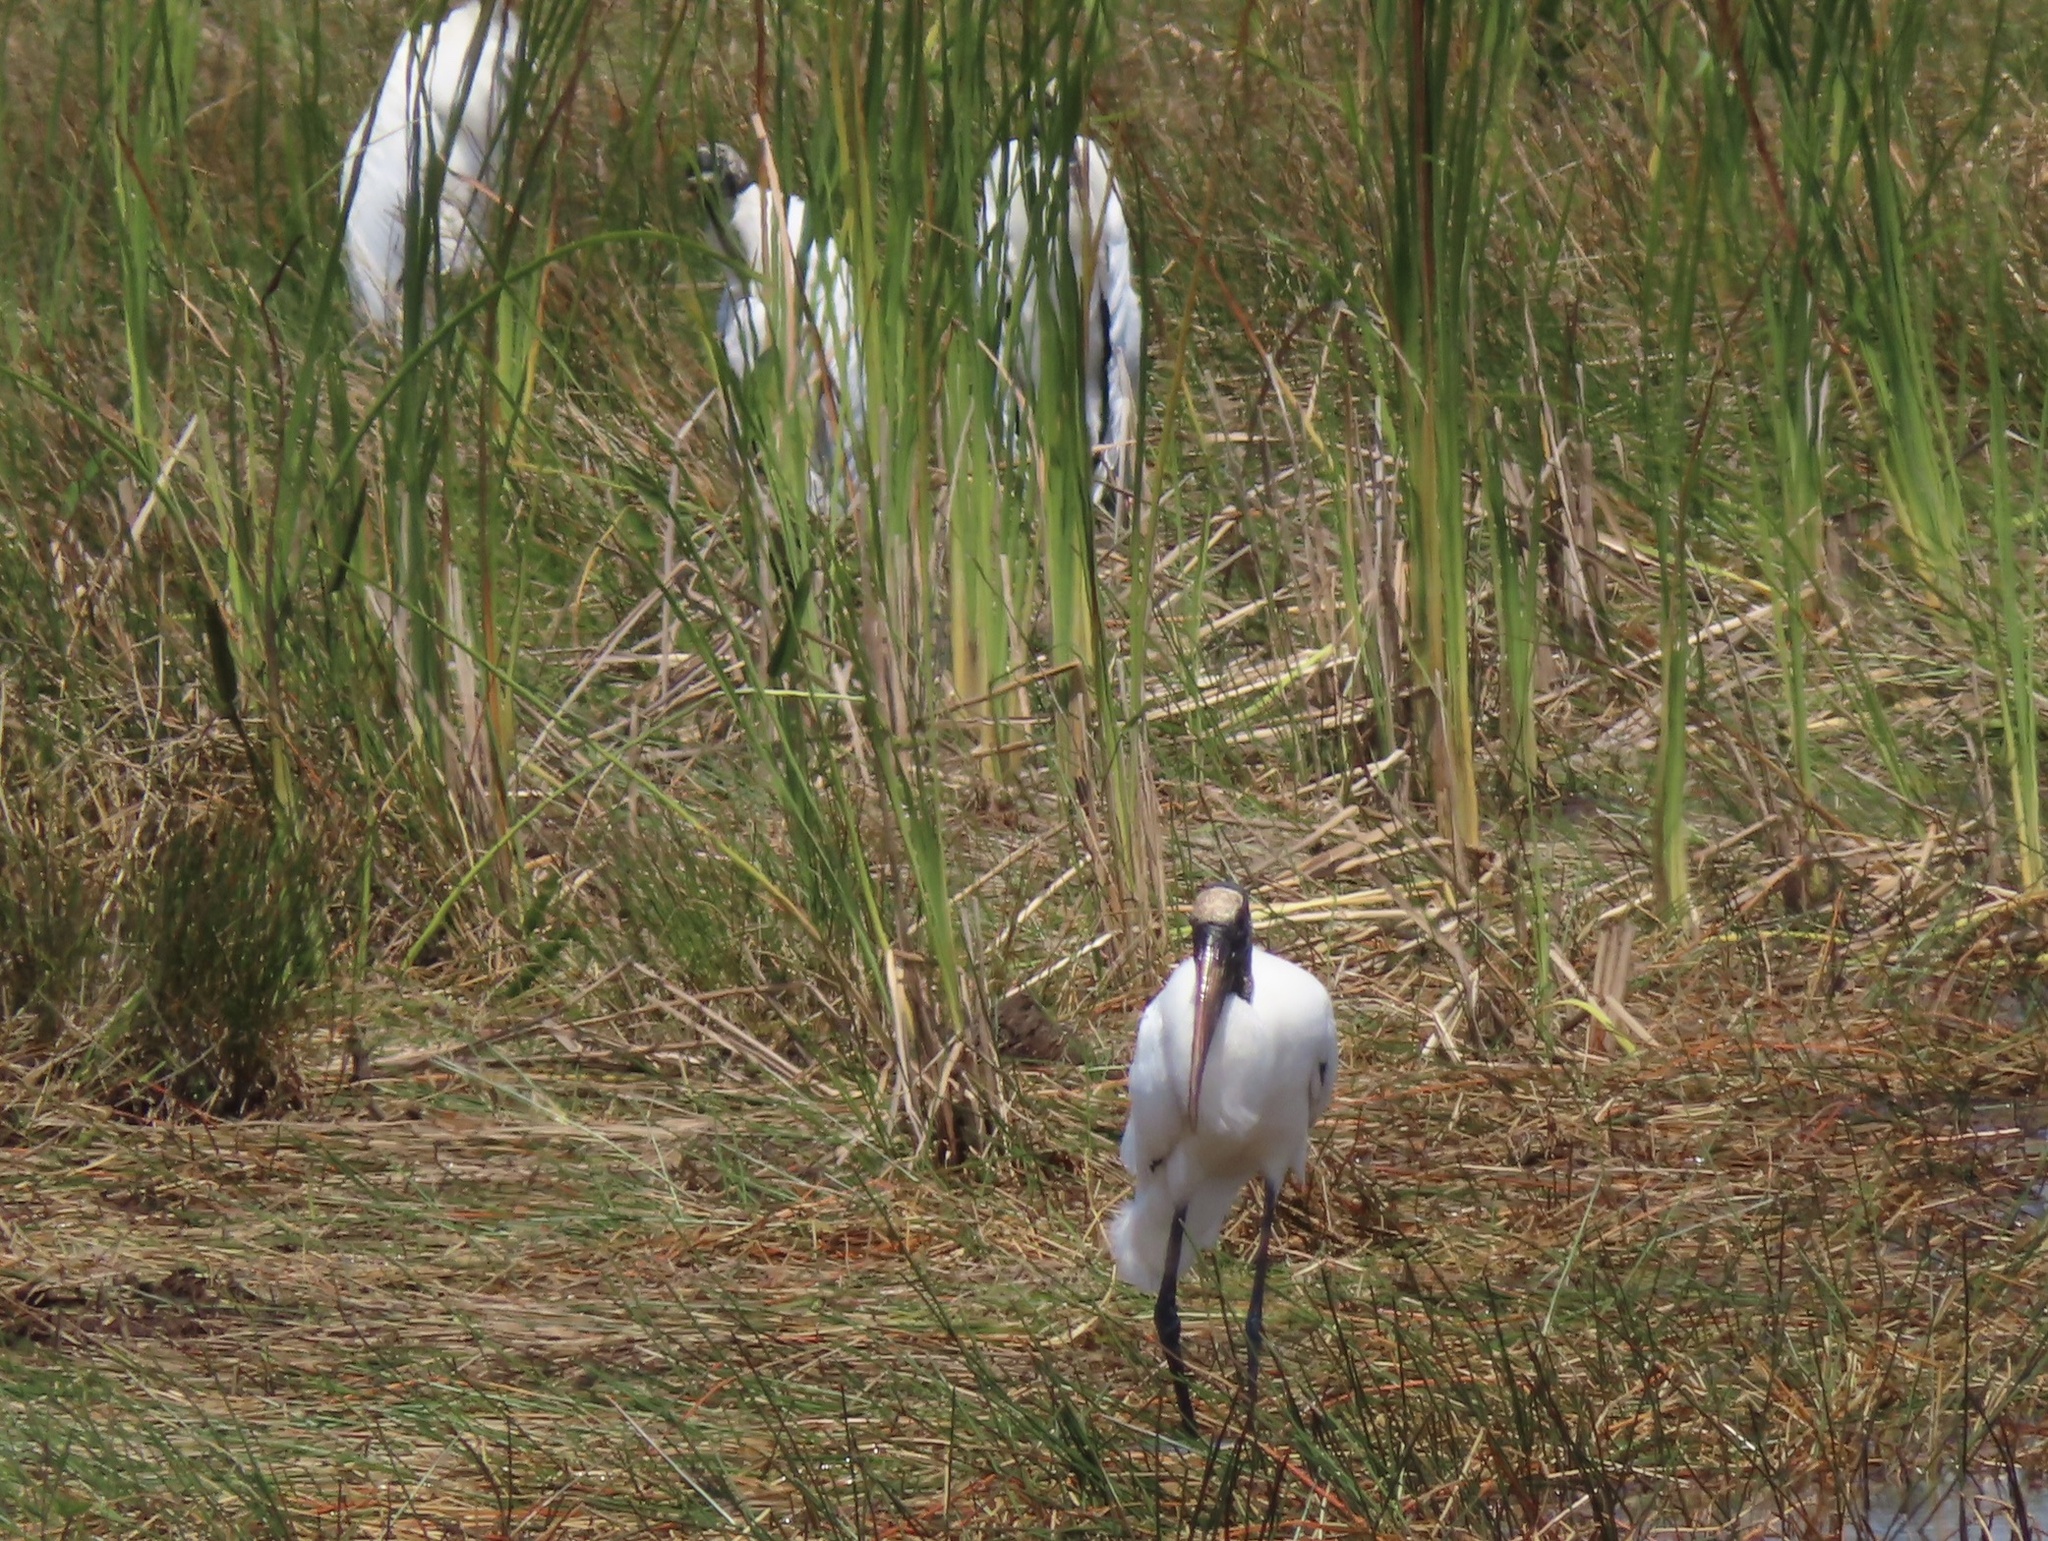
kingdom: Animalia
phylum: Chordata
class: Aves
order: Ciconiiformes
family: Ciconiidae
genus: Mycteria
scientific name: Mycteria americana
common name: Wood stork
